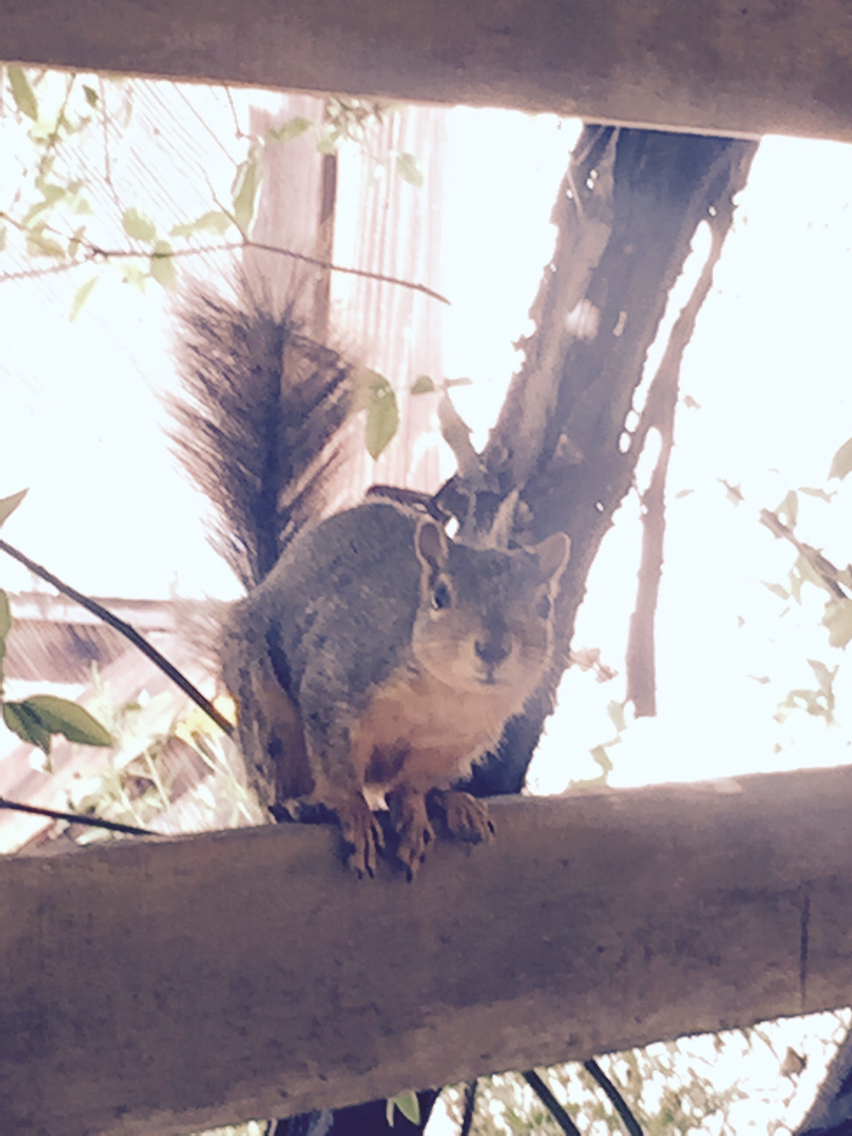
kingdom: Animalia
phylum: Chordata
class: Mammalia
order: Rodentia
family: Sciuridae
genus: Sciurus
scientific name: Sciurus niger
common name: Fox squirrel
